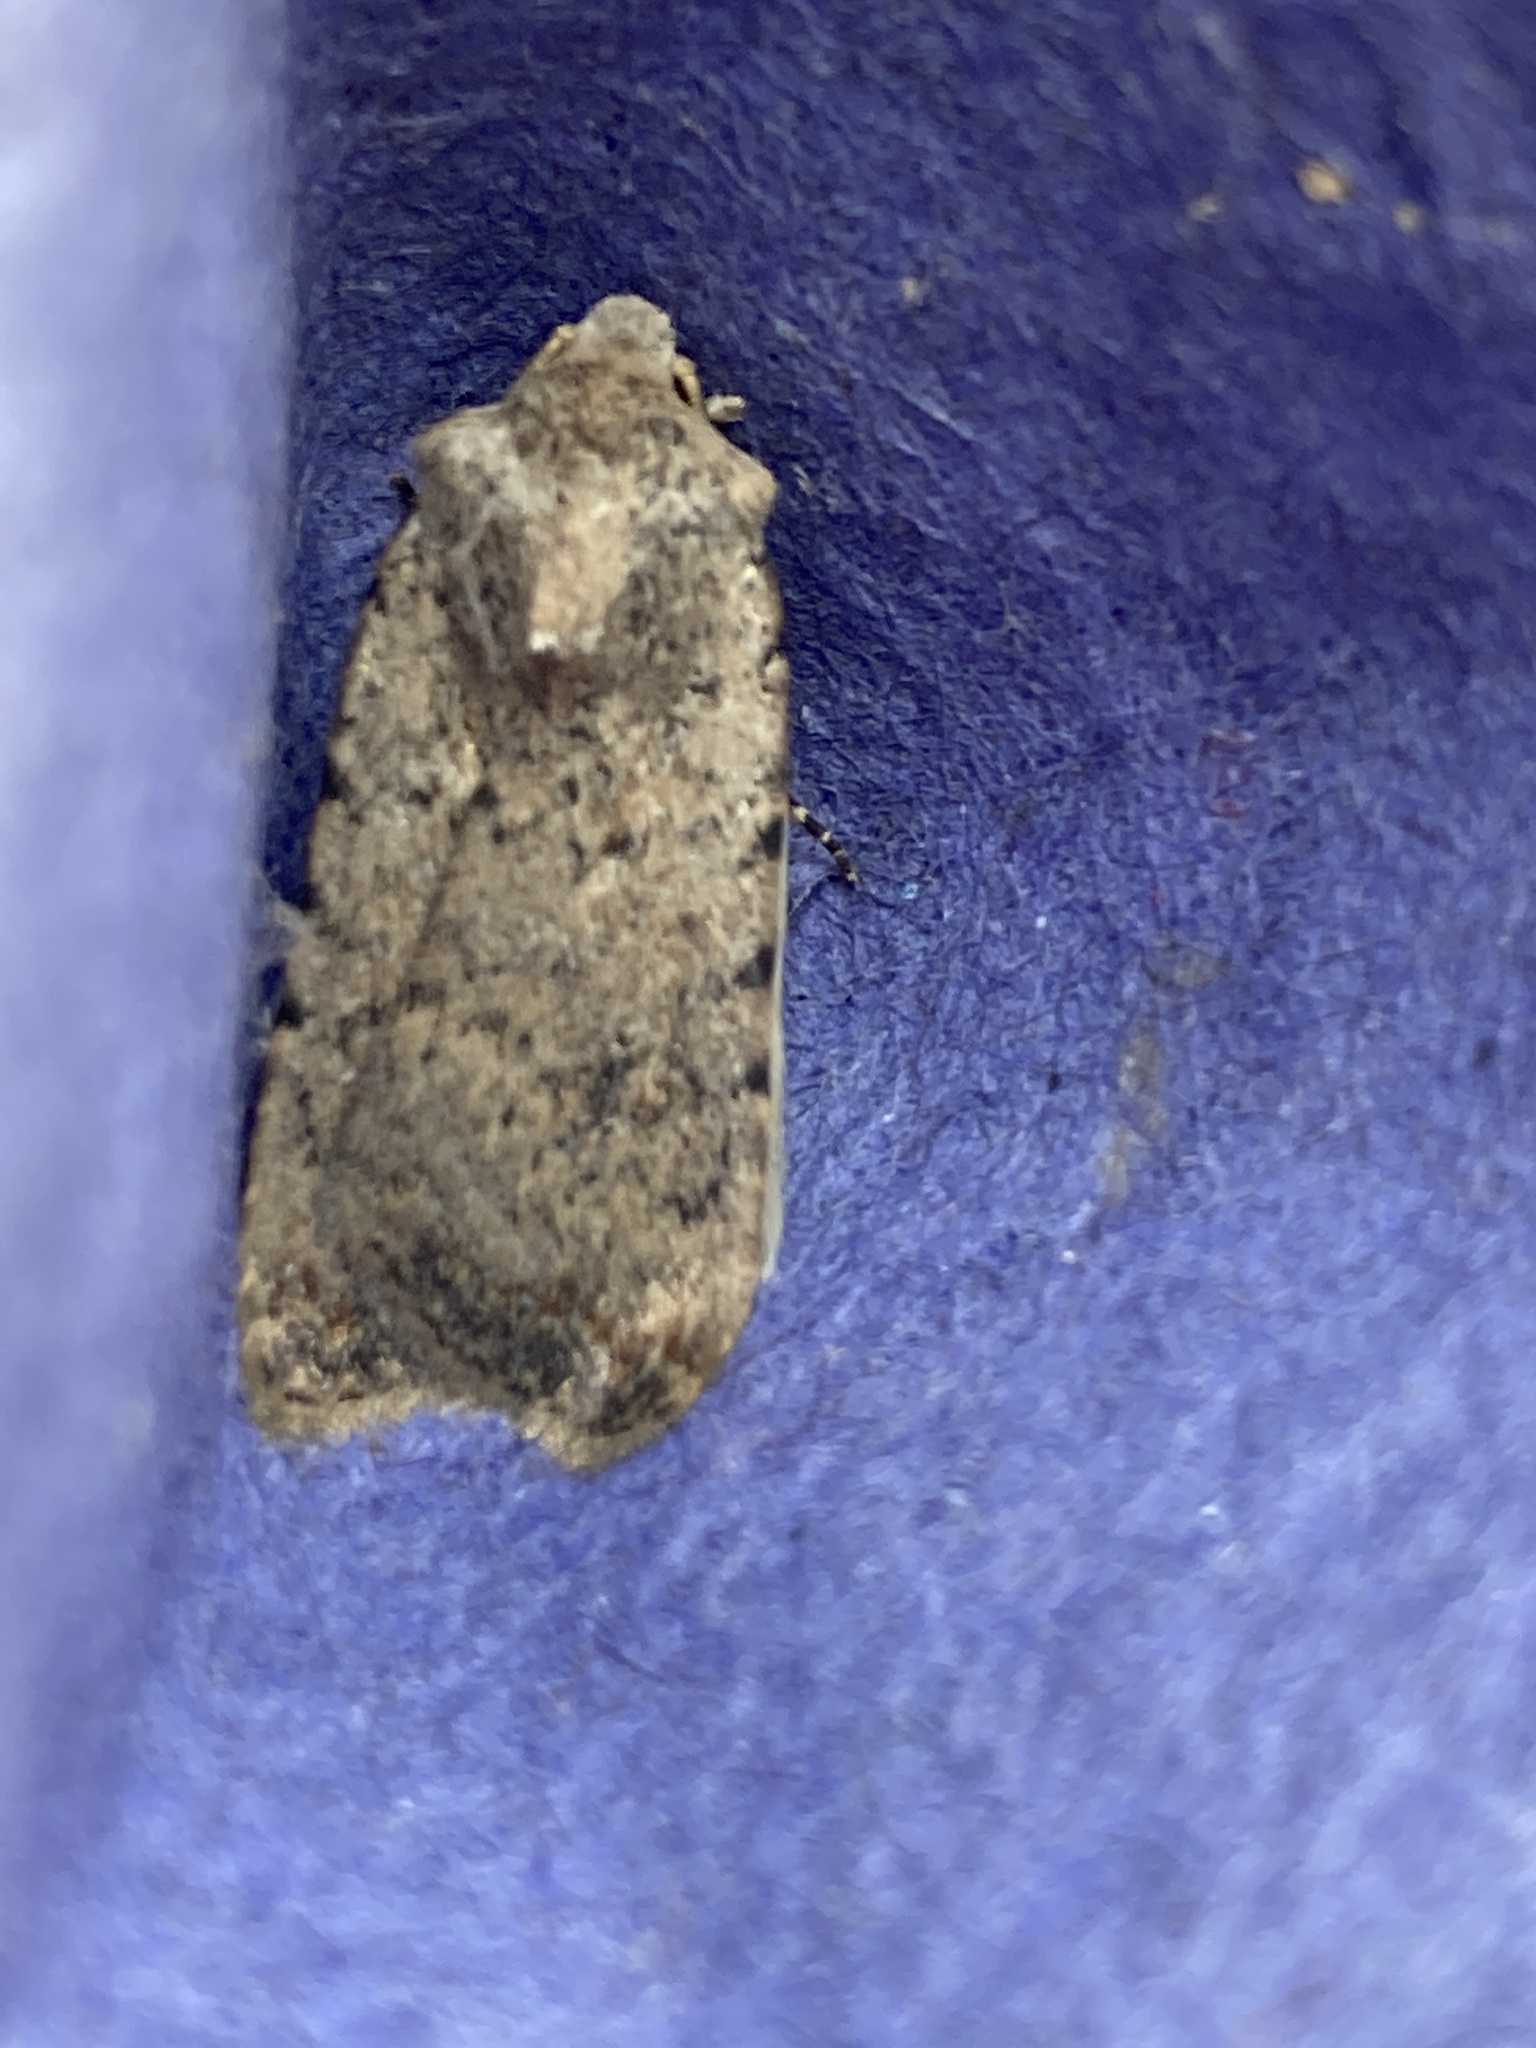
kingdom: Animalia
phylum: Arthropoda
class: Insecta
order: Lepidoptera
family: Noctuidae
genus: Caradrina
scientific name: Caradrina clavipalpis
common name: Pale mottled willow
